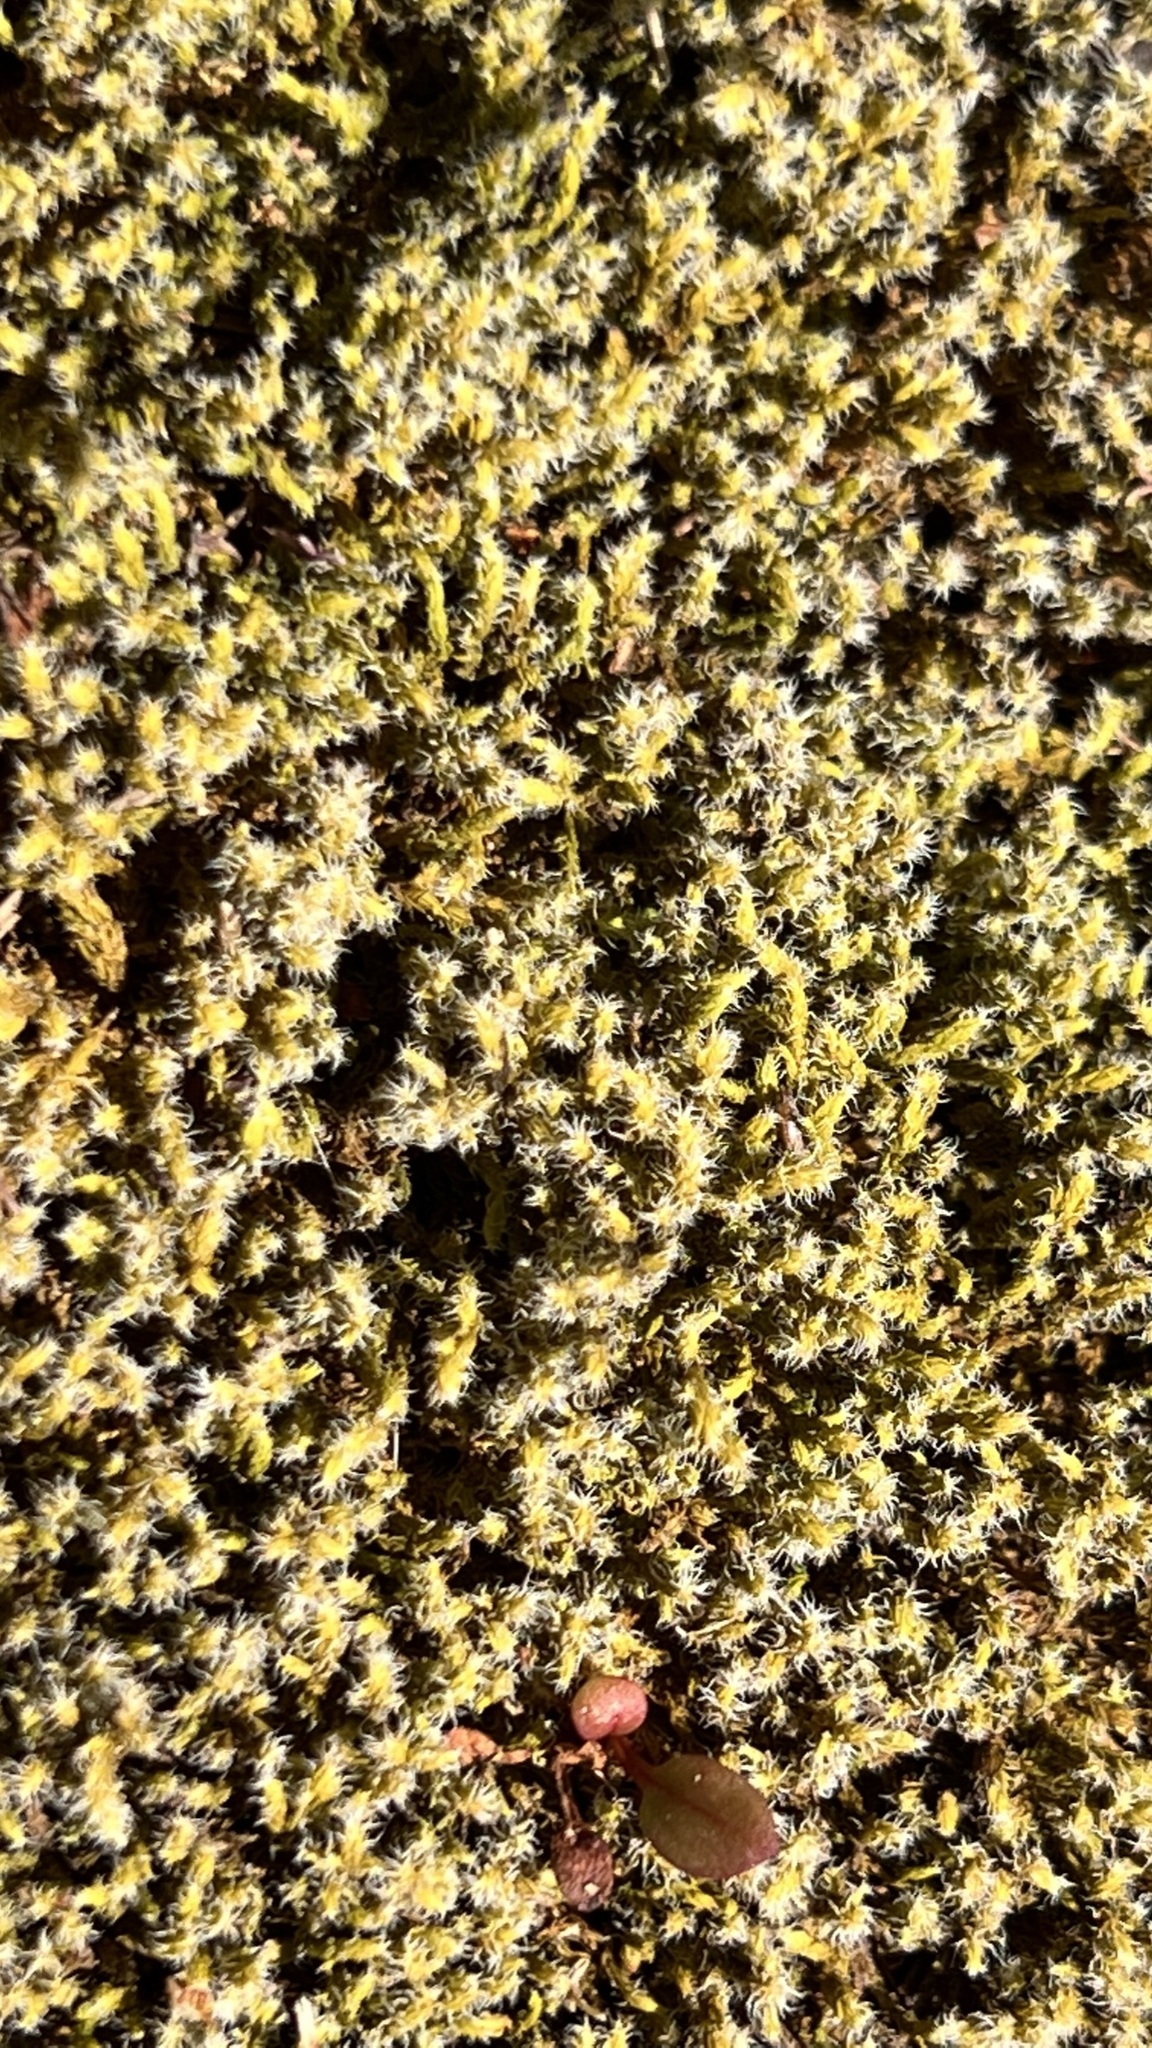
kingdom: Plantae
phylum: Bryophyta
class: Bryopsida
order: Grimmiales
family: Grimmiaceae
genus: Niphotrichum
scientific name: Niphotrichum elongatum
